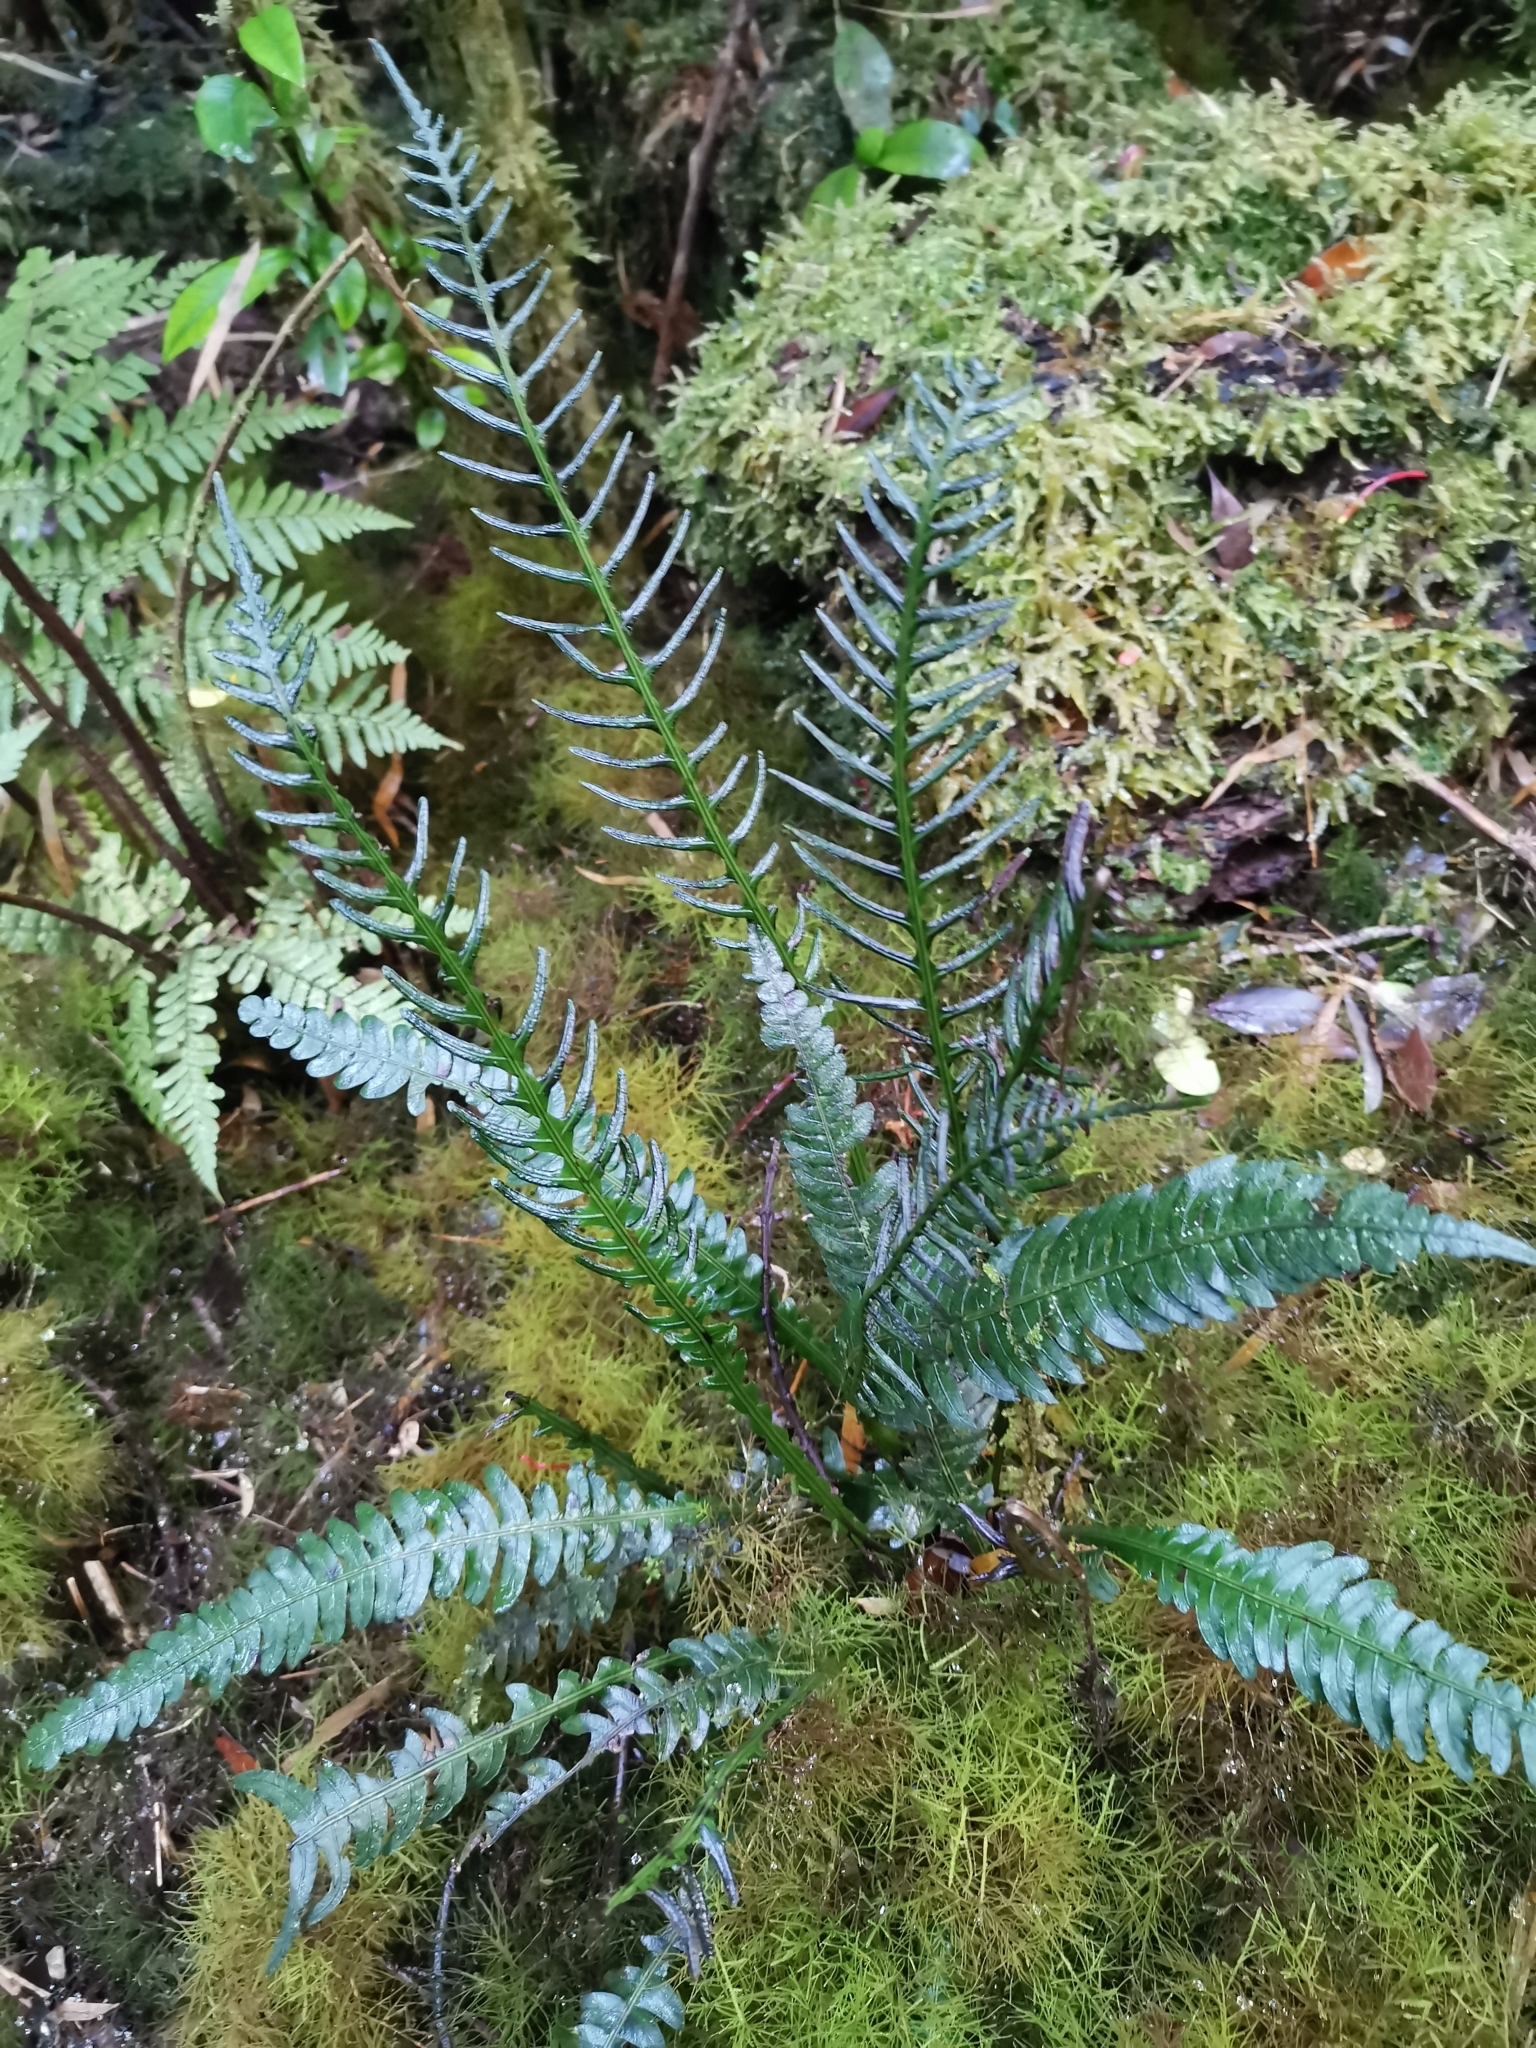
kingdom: Plantae
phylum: Tracheophyta
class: Polypodiopsida
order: Polypodiales
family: Blechnaceae
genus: Austroblechnum
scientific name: Austroblechnum lechleri
